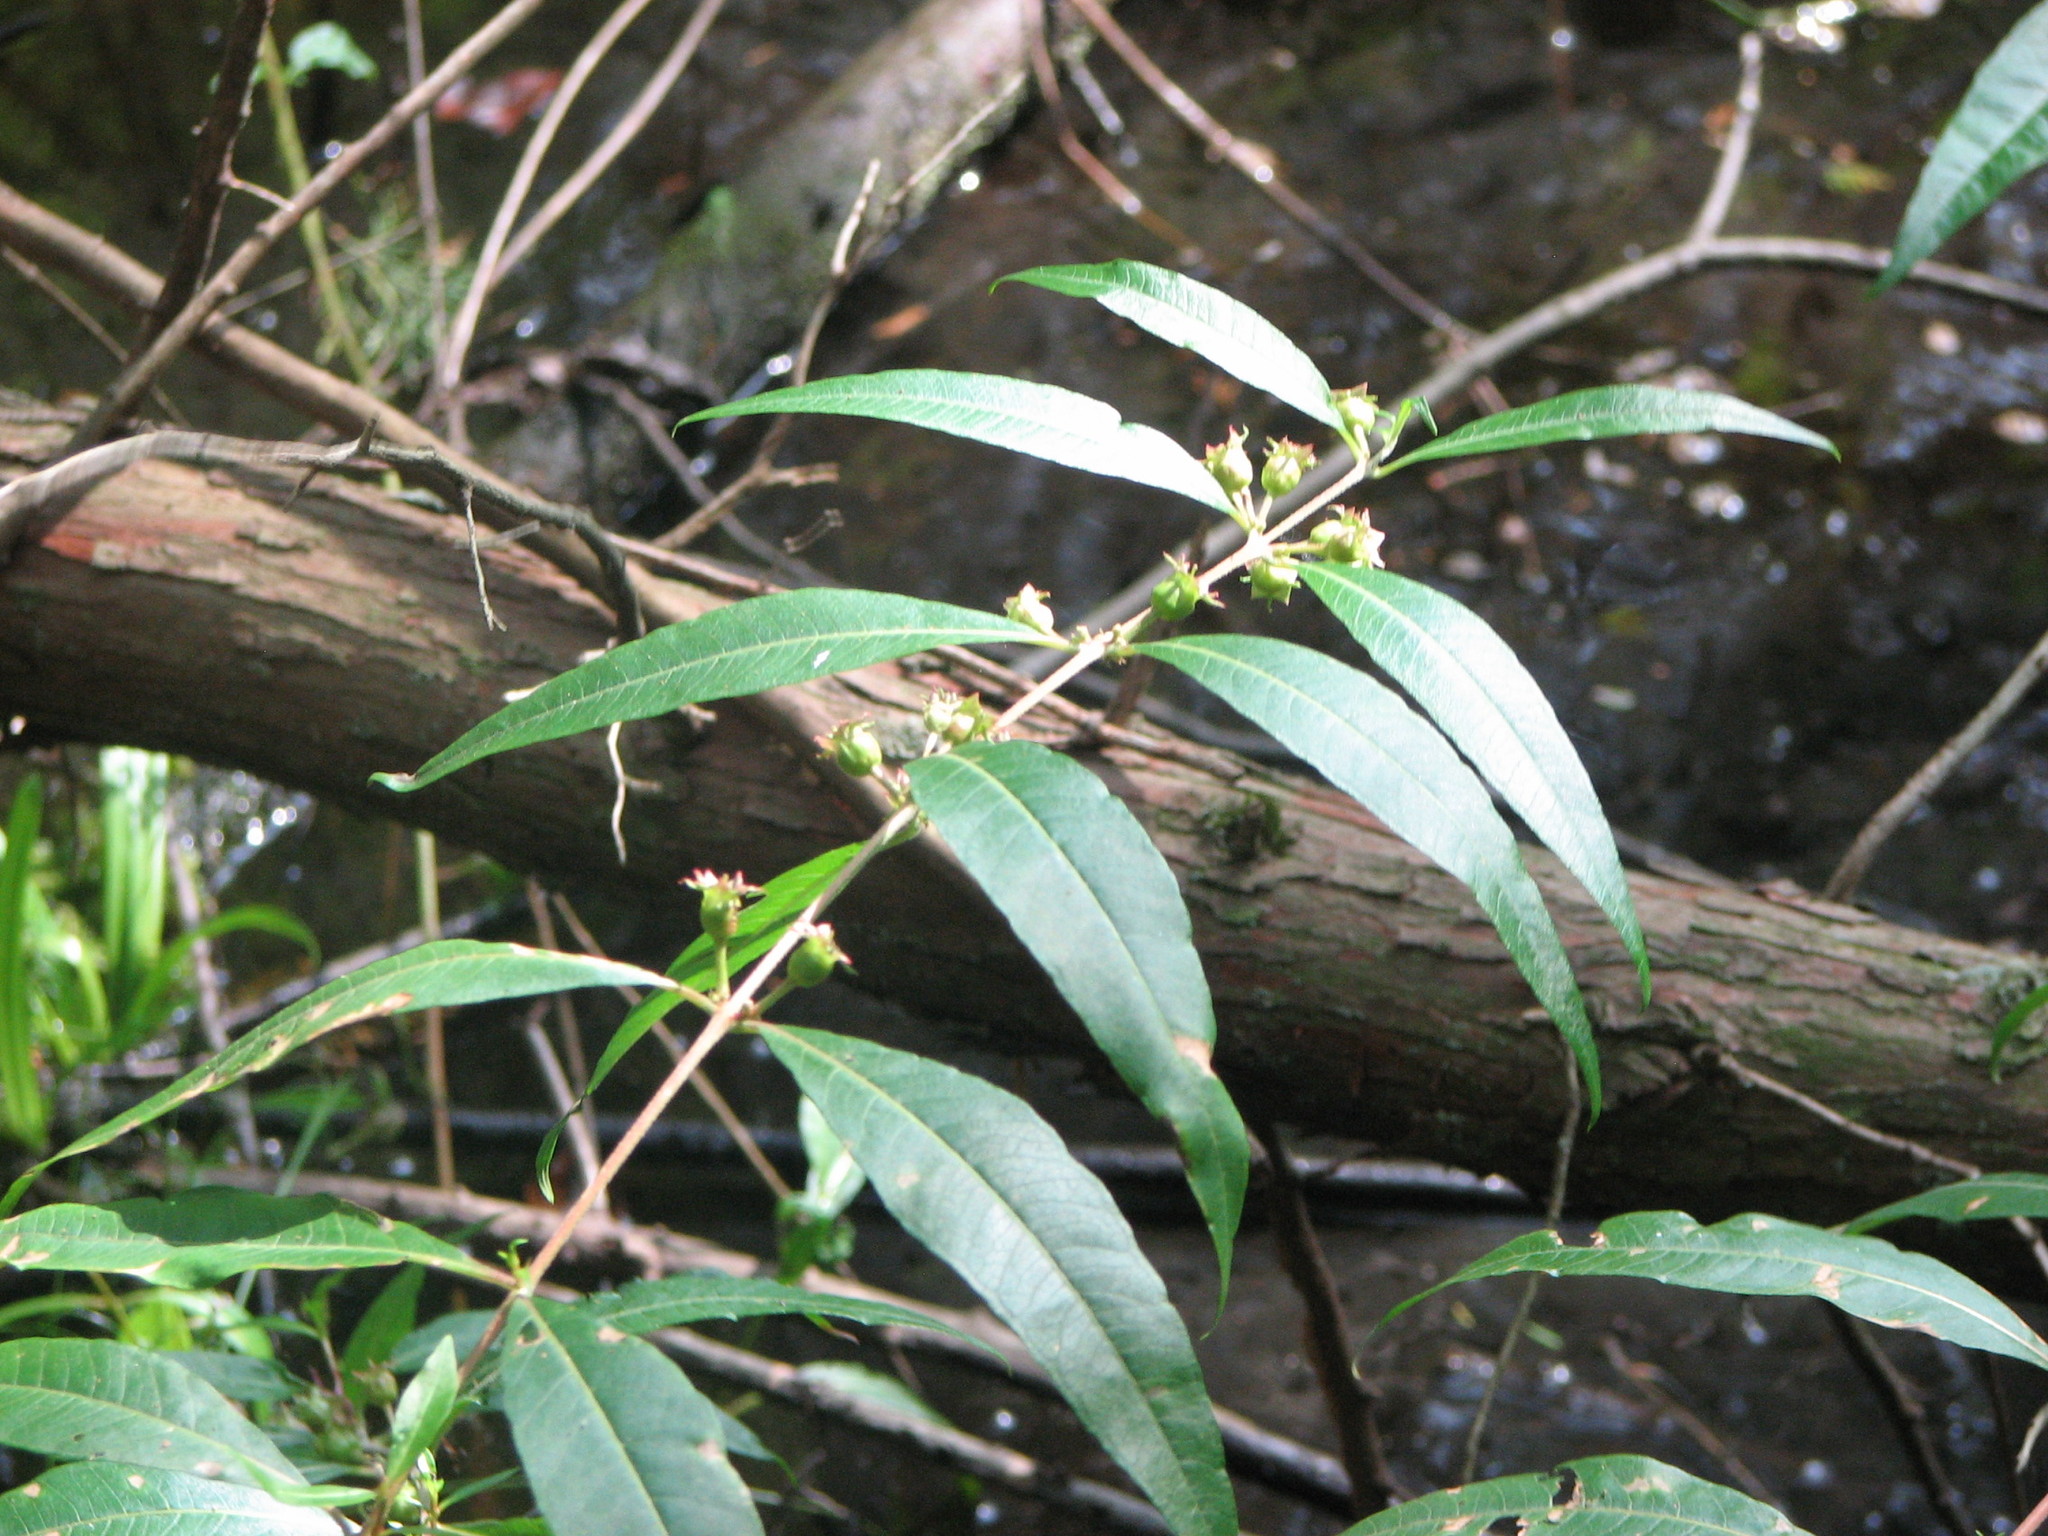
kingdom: Plantae
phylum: Tracheophyta
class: Magnoliopsida
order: Myrtales
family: Lythraceae
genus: Decodon
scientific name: Decodon verticillatus
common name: Hairy swamp loosestrife
